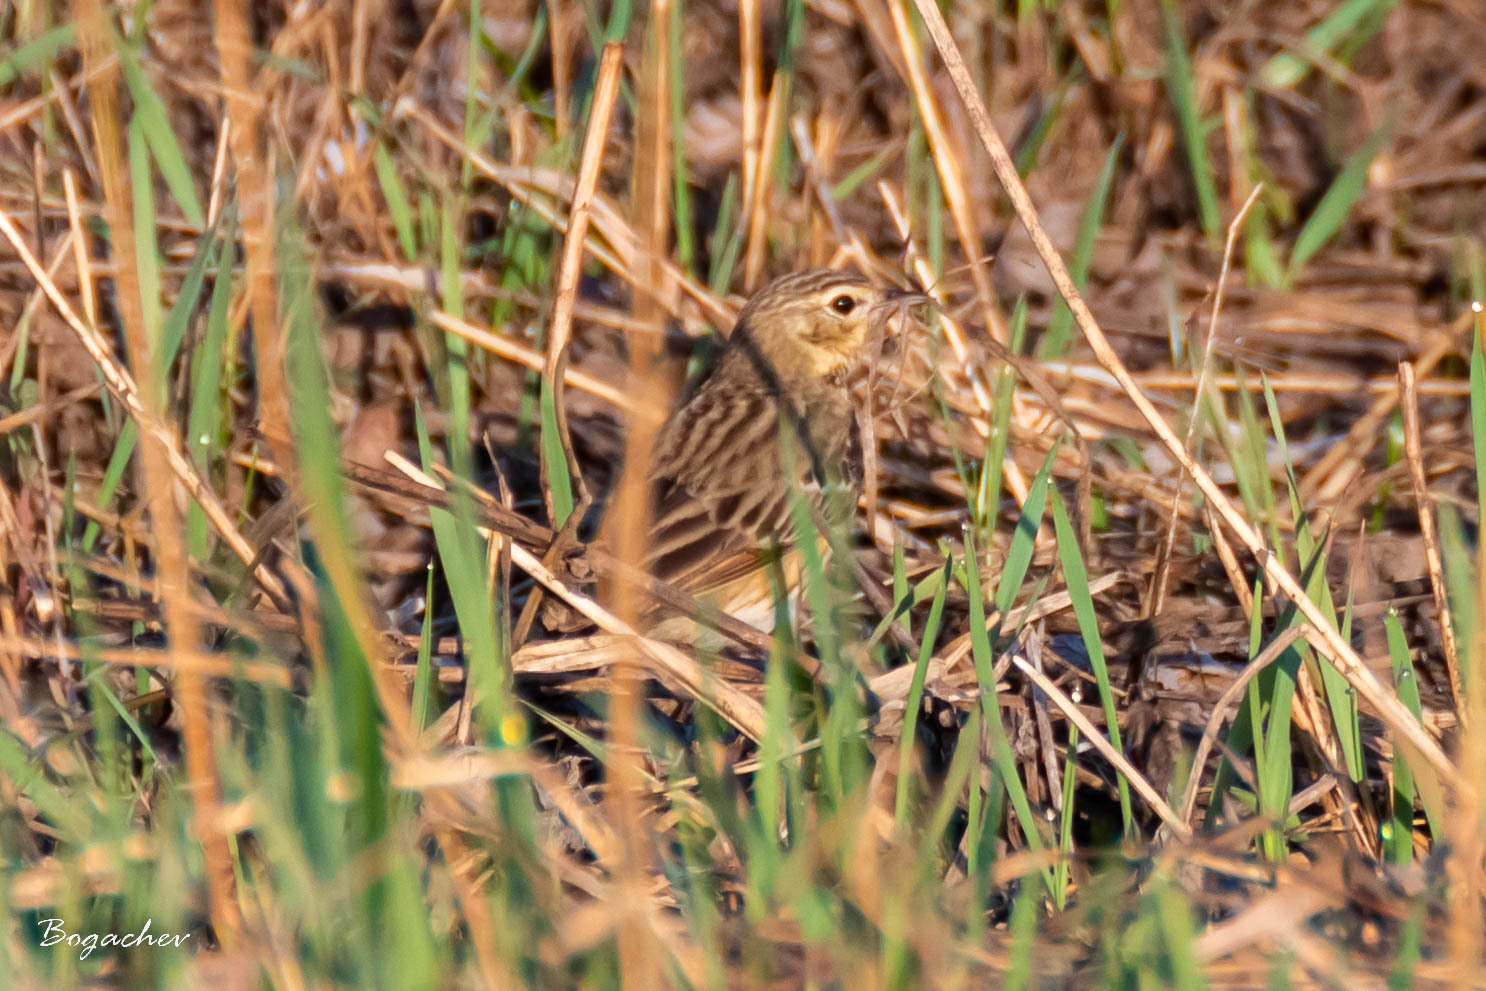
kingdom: Animalia
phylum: Chordata
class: Aves
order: Passeriformes
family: Motacillidae
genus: Anthus
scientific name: Anthus trivialis
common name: Tree pipit
